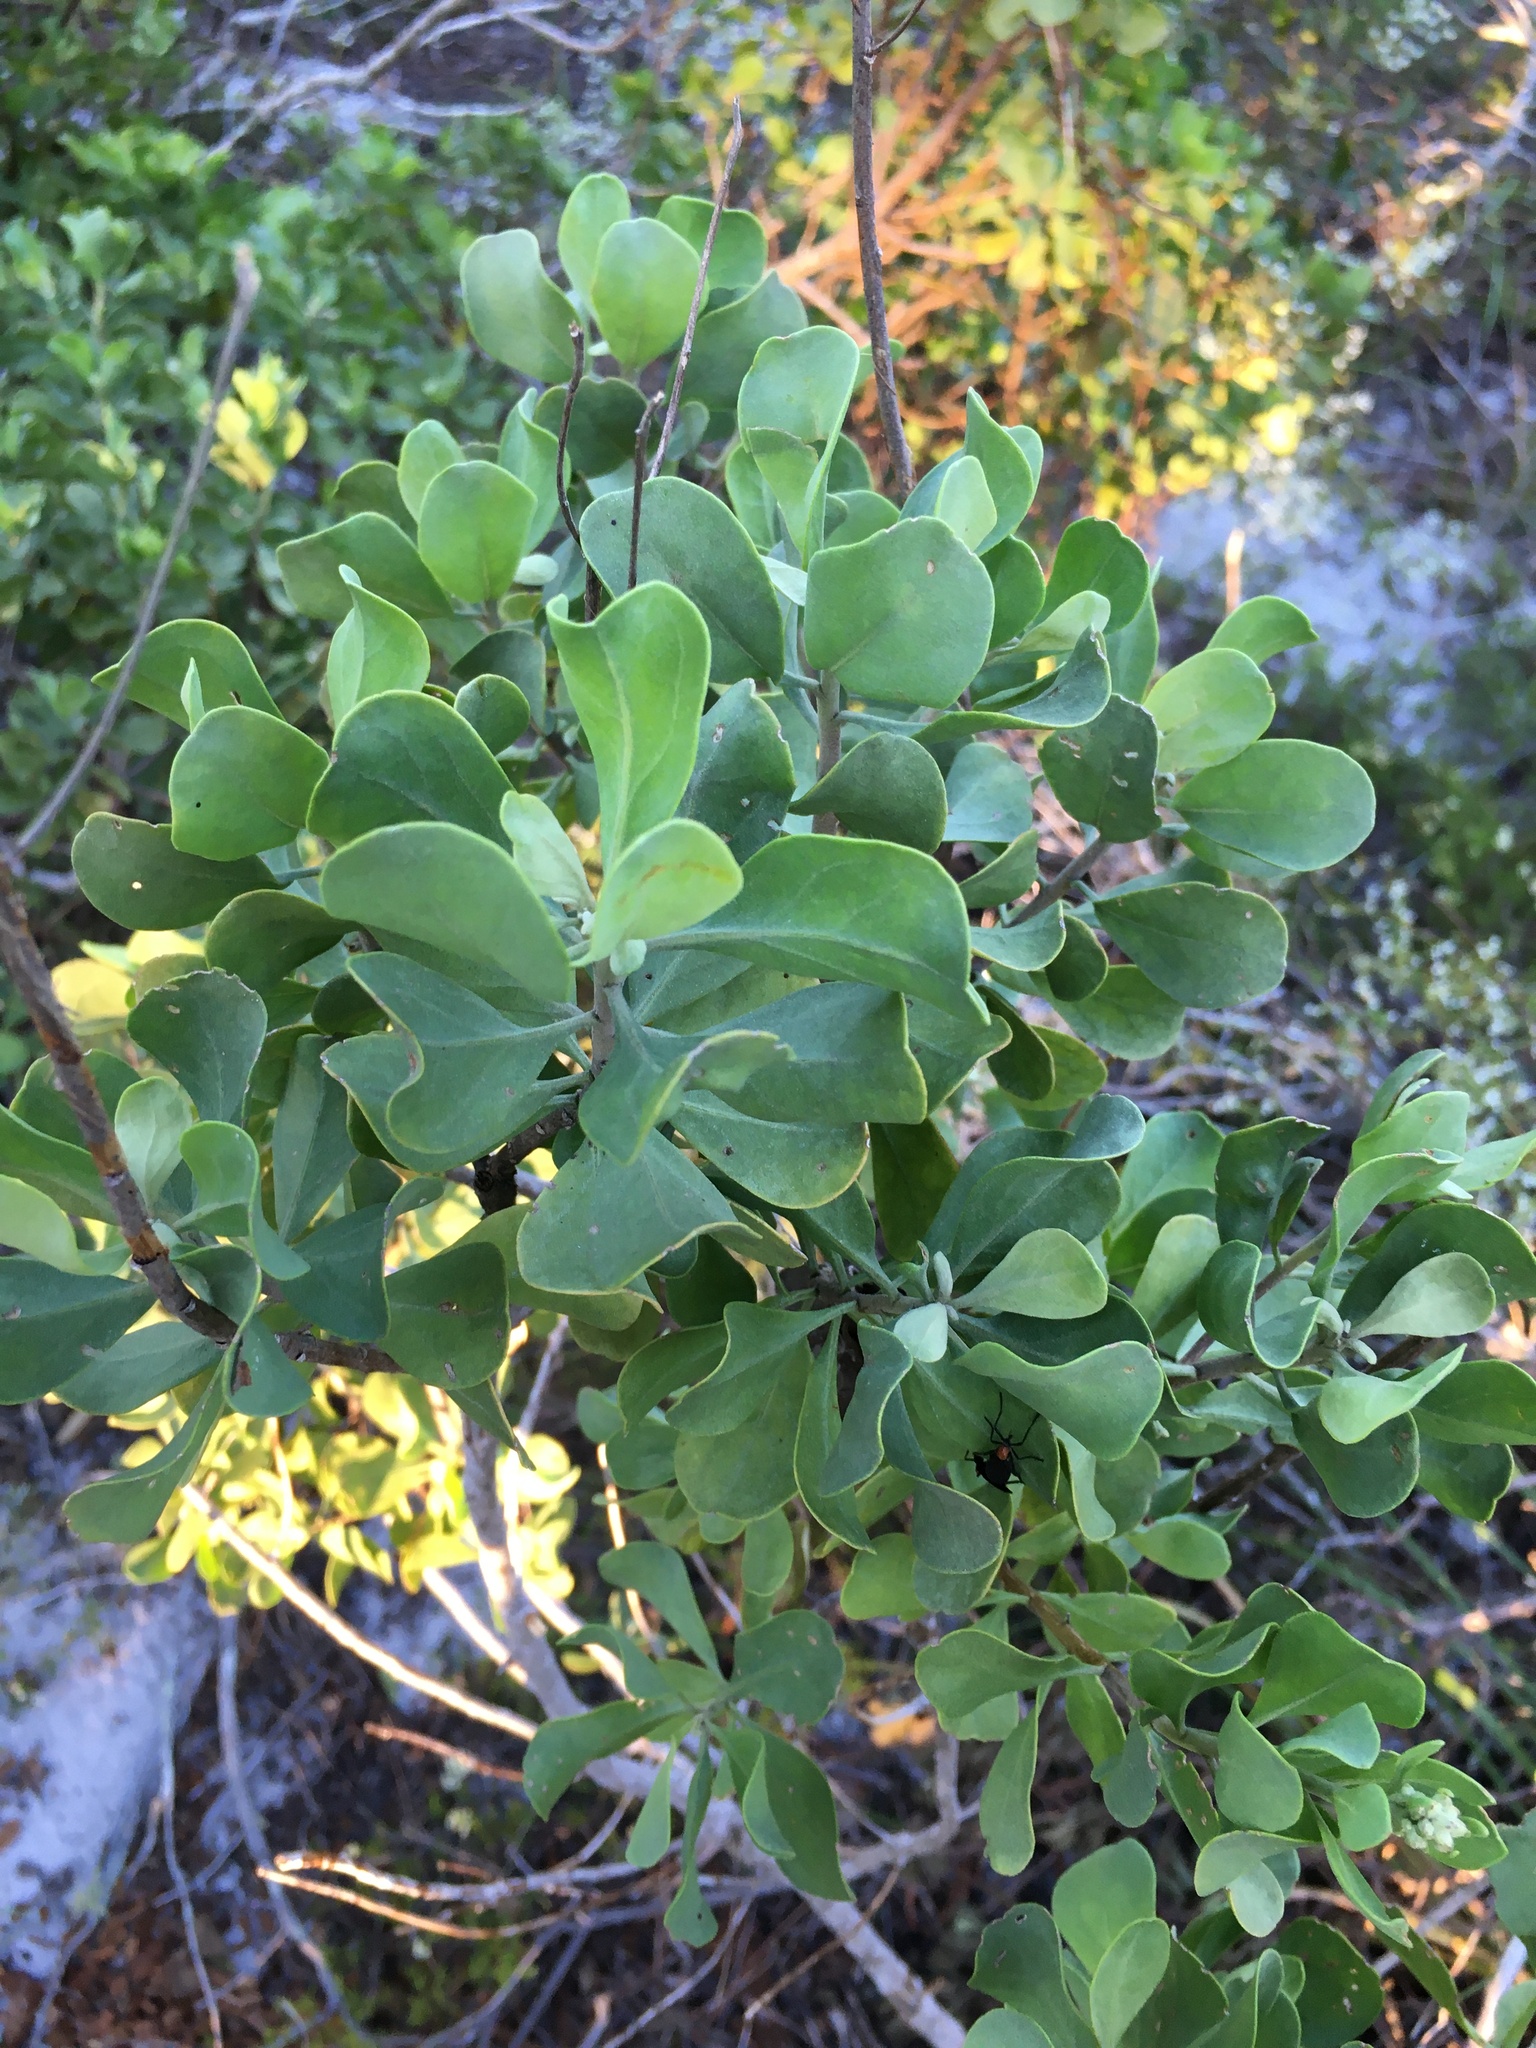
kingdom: Plantae
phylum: Tracheophyta
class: Magnoliopsida
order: Asterales
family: Asteraceae
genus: Garberia
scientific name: Garberia heterophylla
